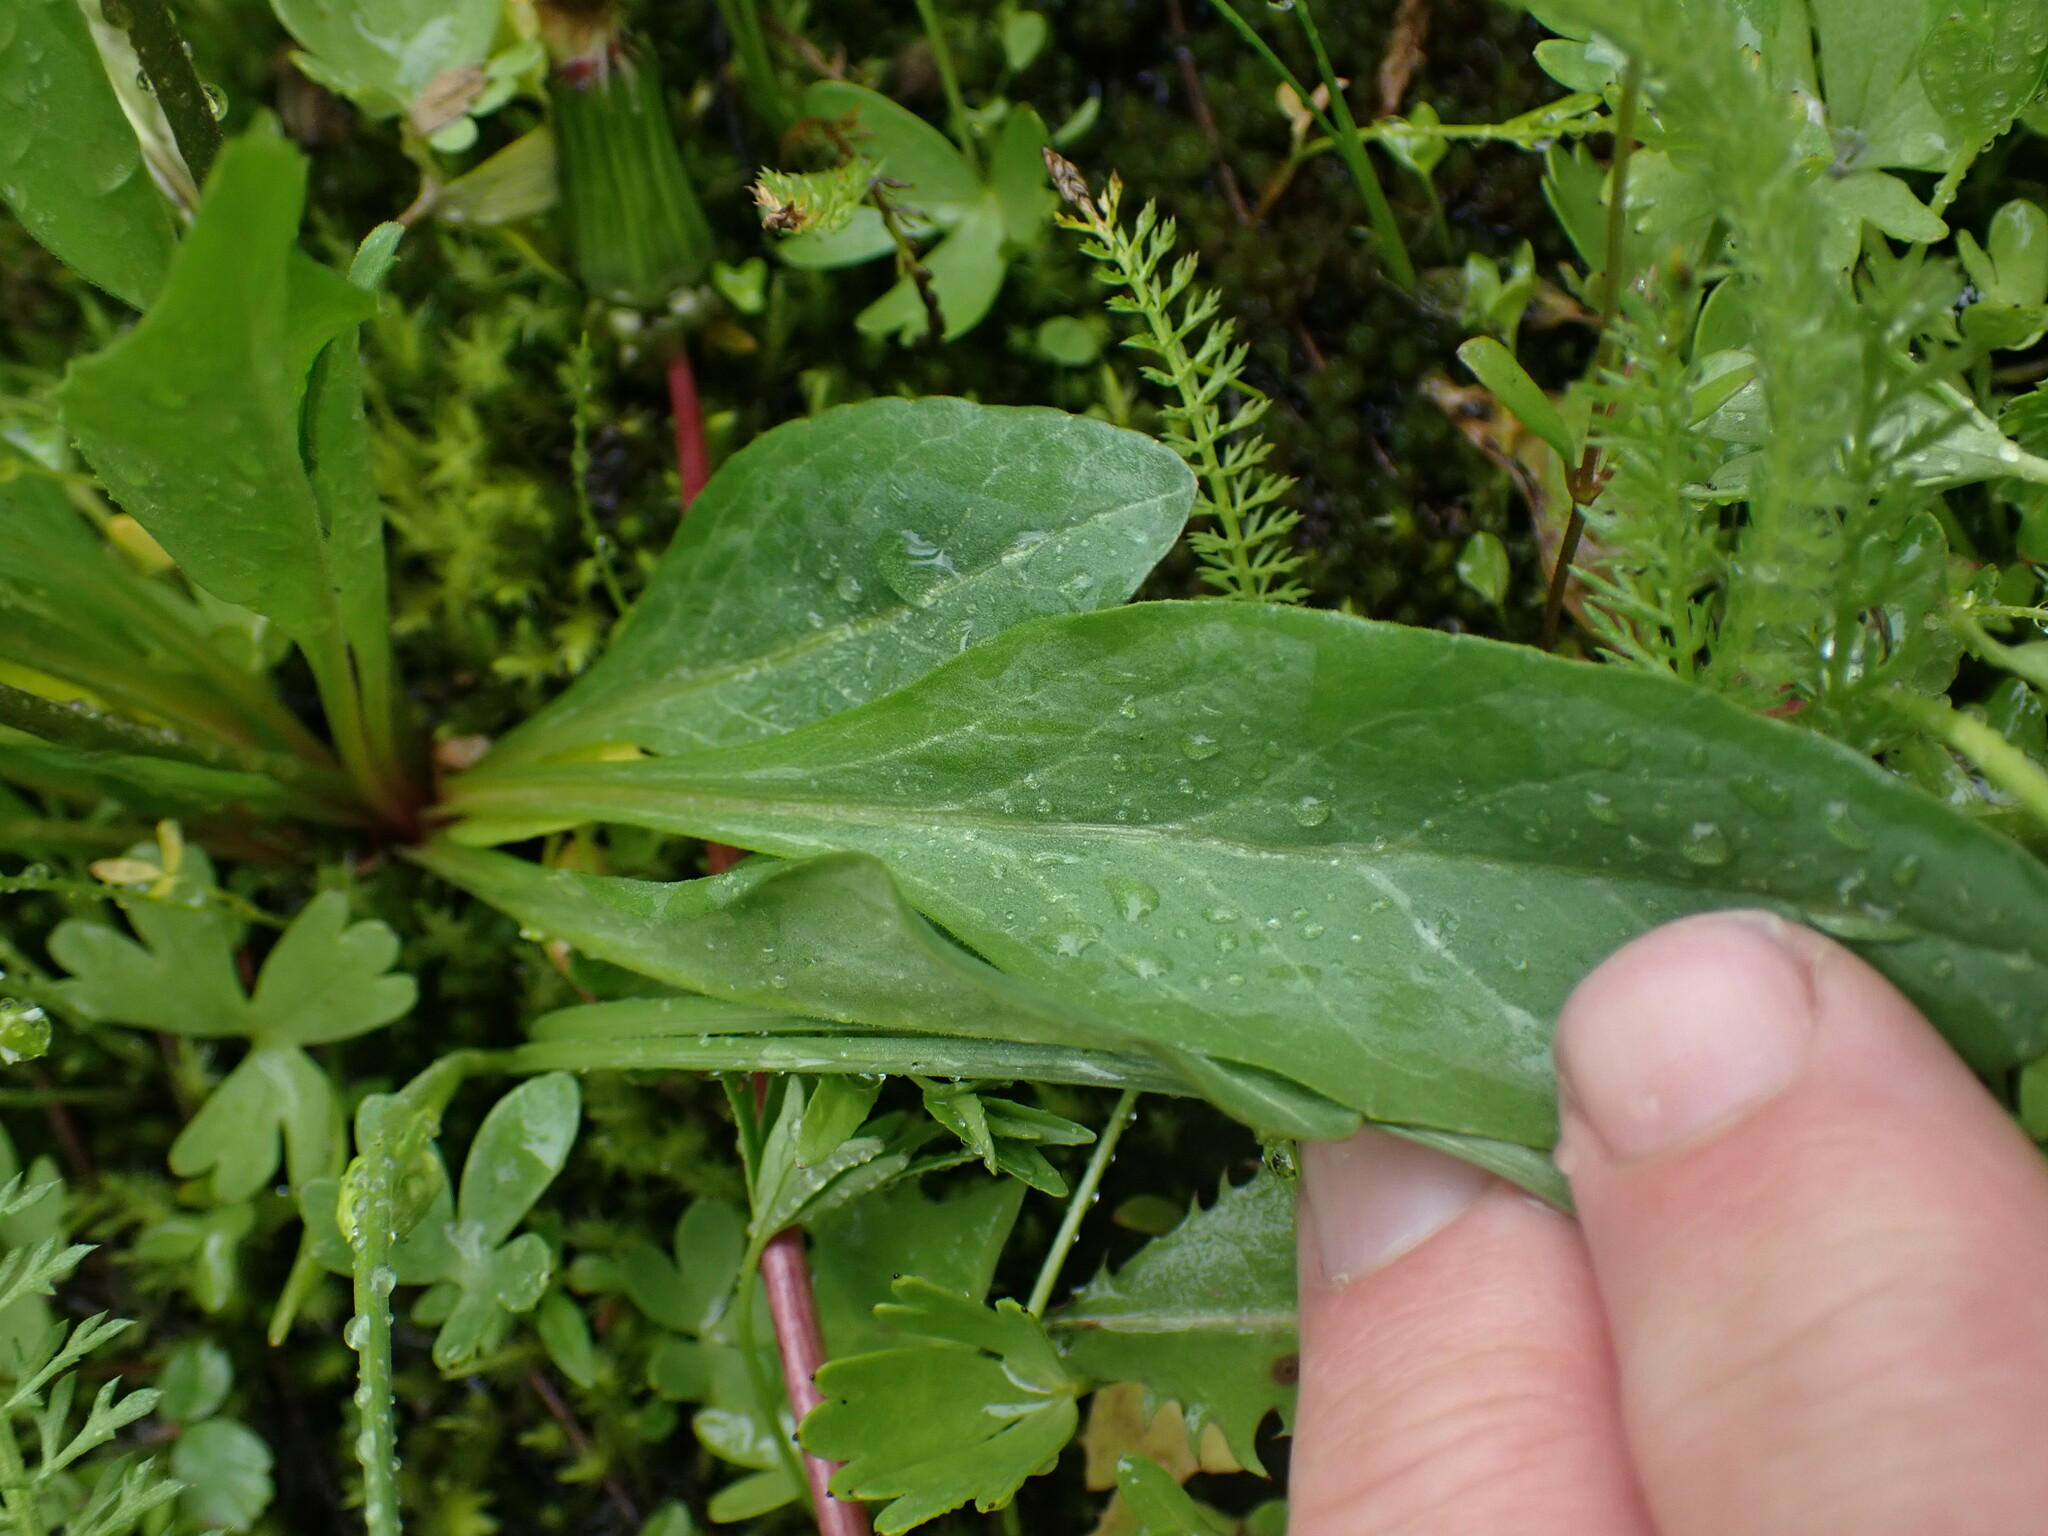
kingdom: Plantae
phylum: Tracheophyta
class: Magnoliopsida
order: Ericales
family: Primulaceae
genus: Dodecatheon
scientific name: Dodecatheon pulchellum
